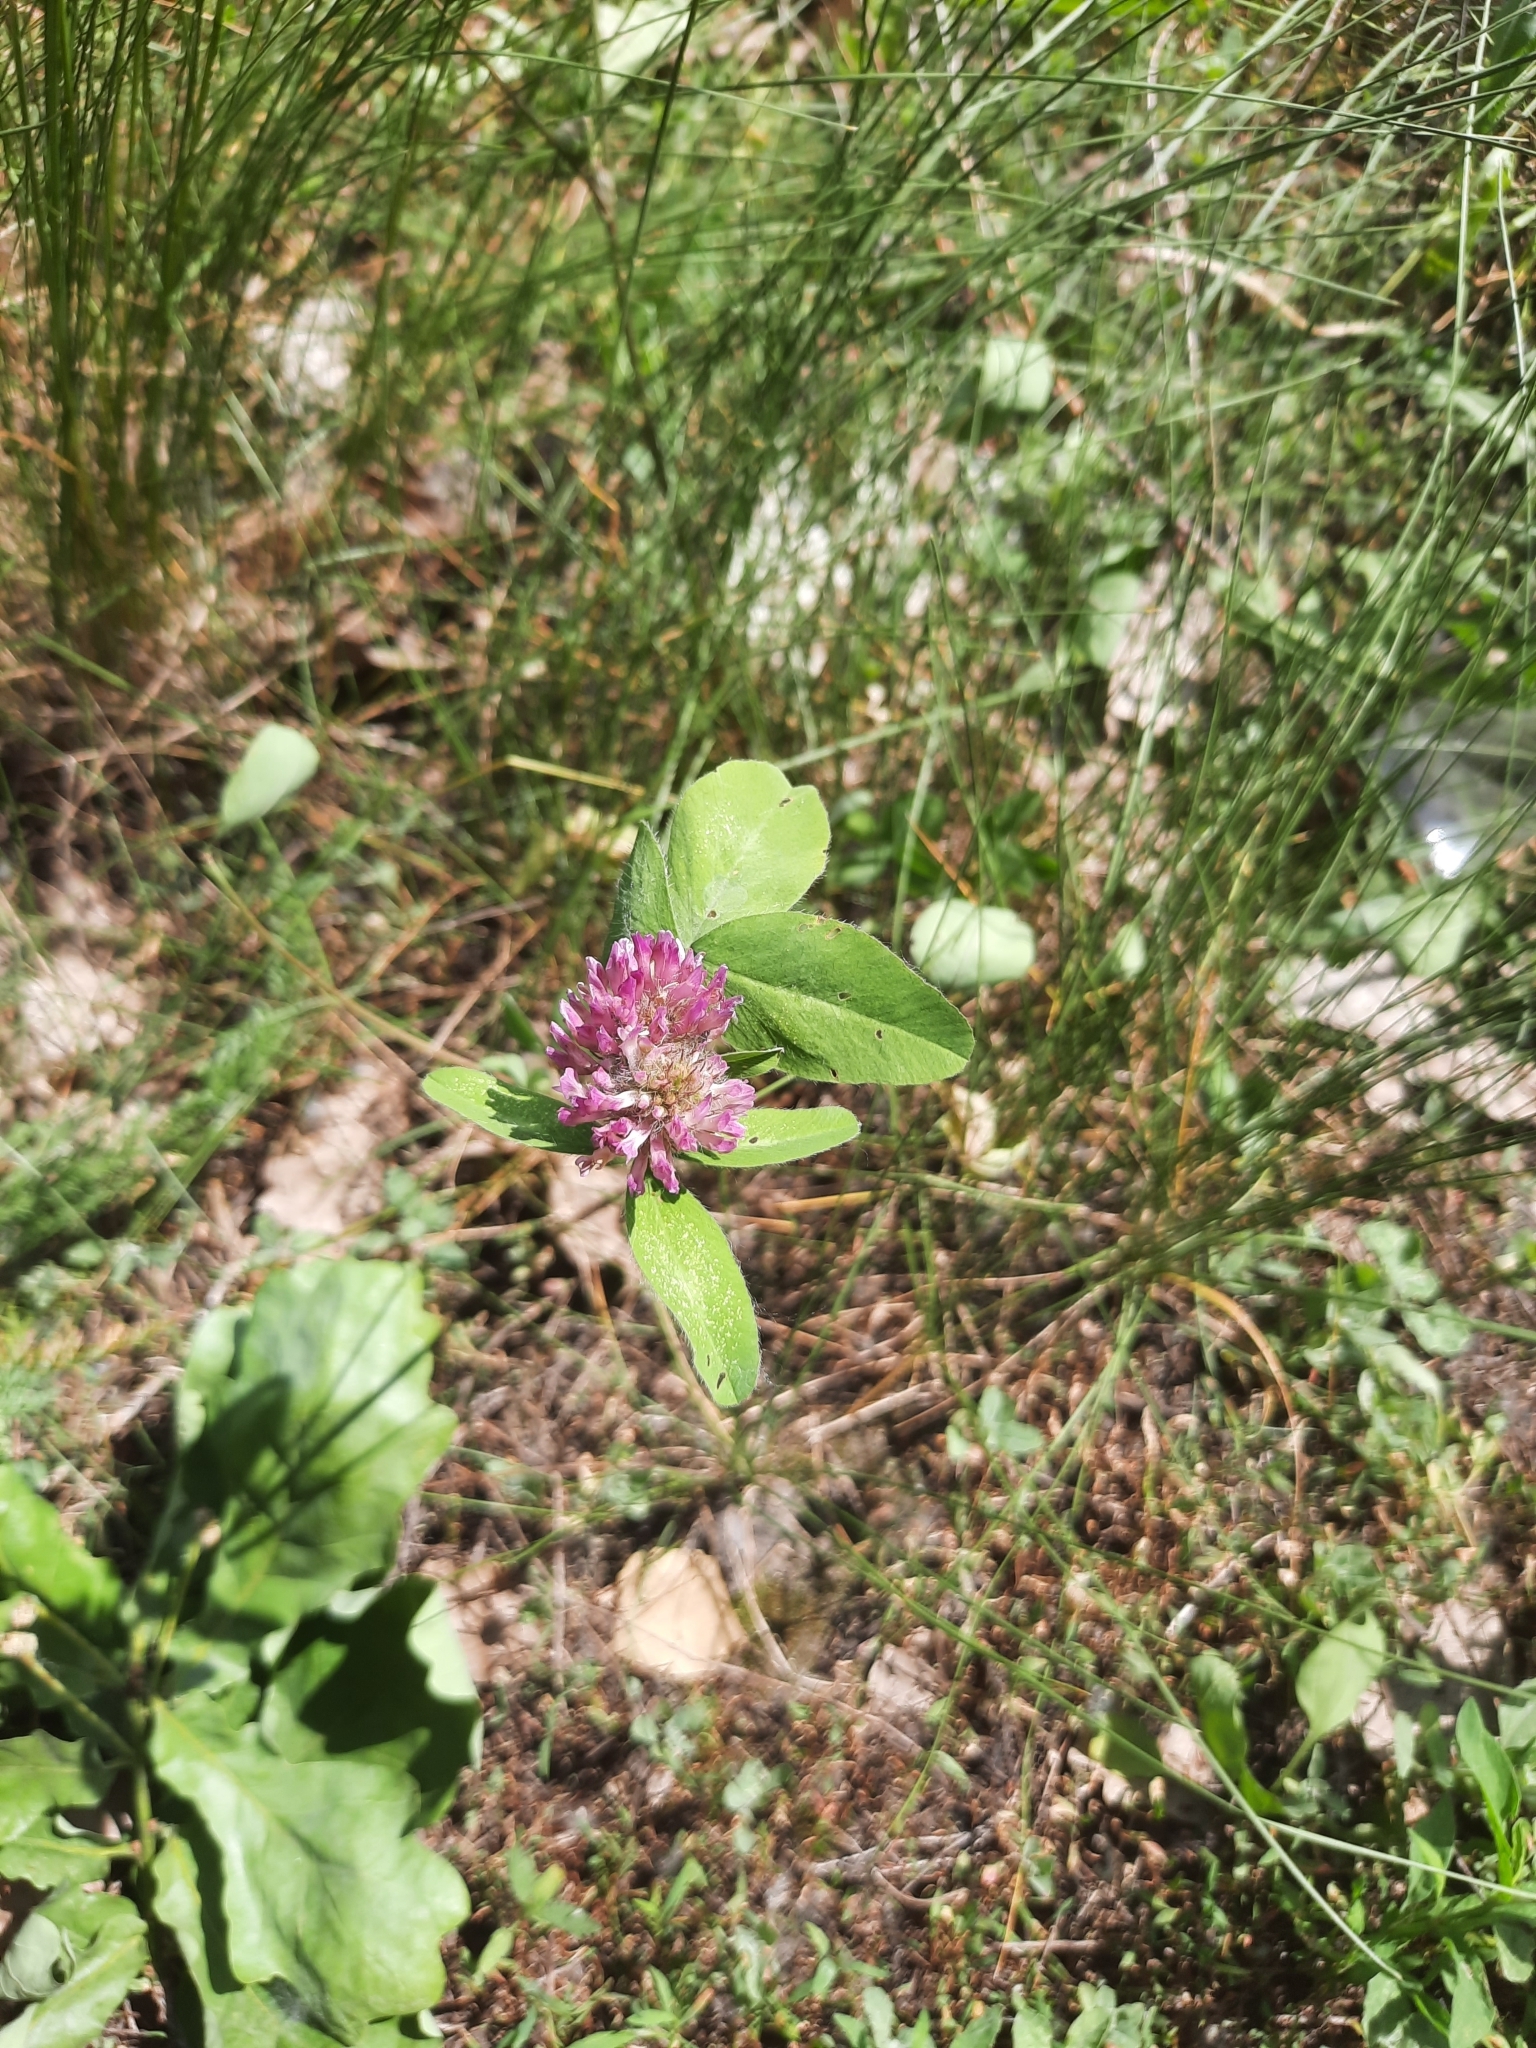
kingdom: Plantae
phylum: Tracheophyta
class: Magnoliopsida
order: Fabales
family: Fabaceae
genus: Trifolium
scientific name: Trifolium pratense
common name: Red clover
